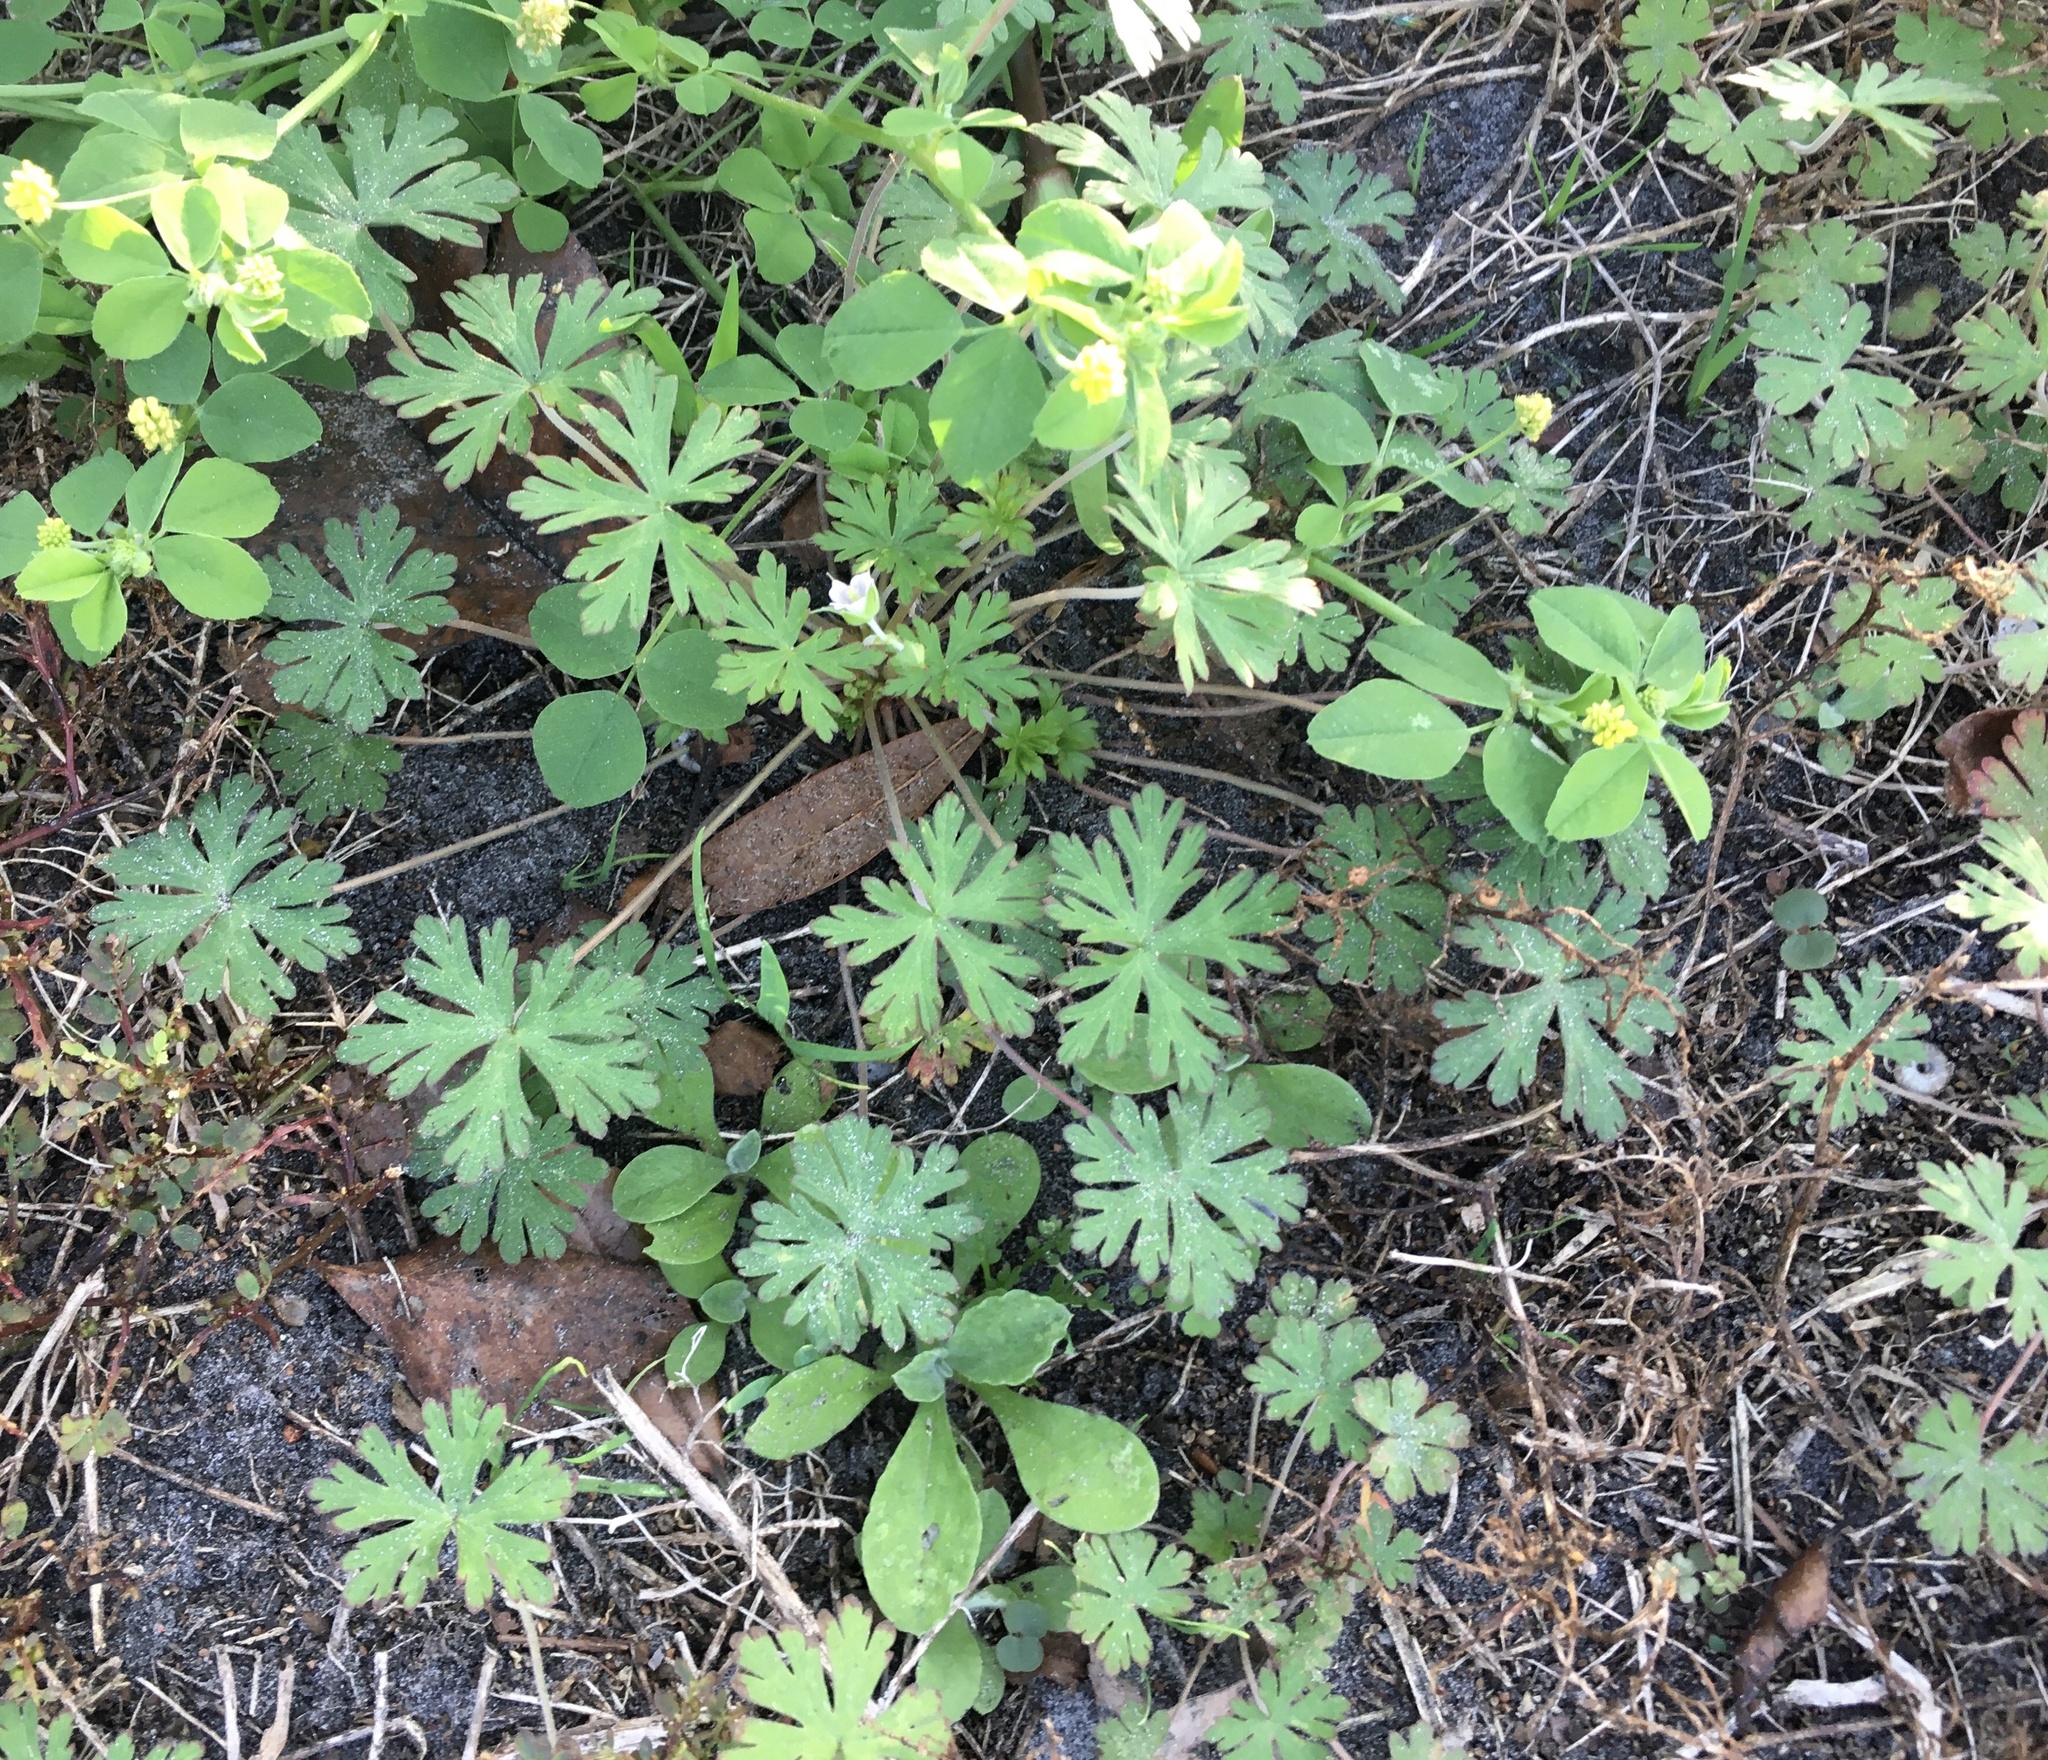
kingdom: Plantae
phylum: Tracheophyta
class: Magnoliopsida
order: Geraniales
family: Geraniaceae
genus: Geranium
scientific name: Geranium carolinianum
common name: Carolina crane's-bill
